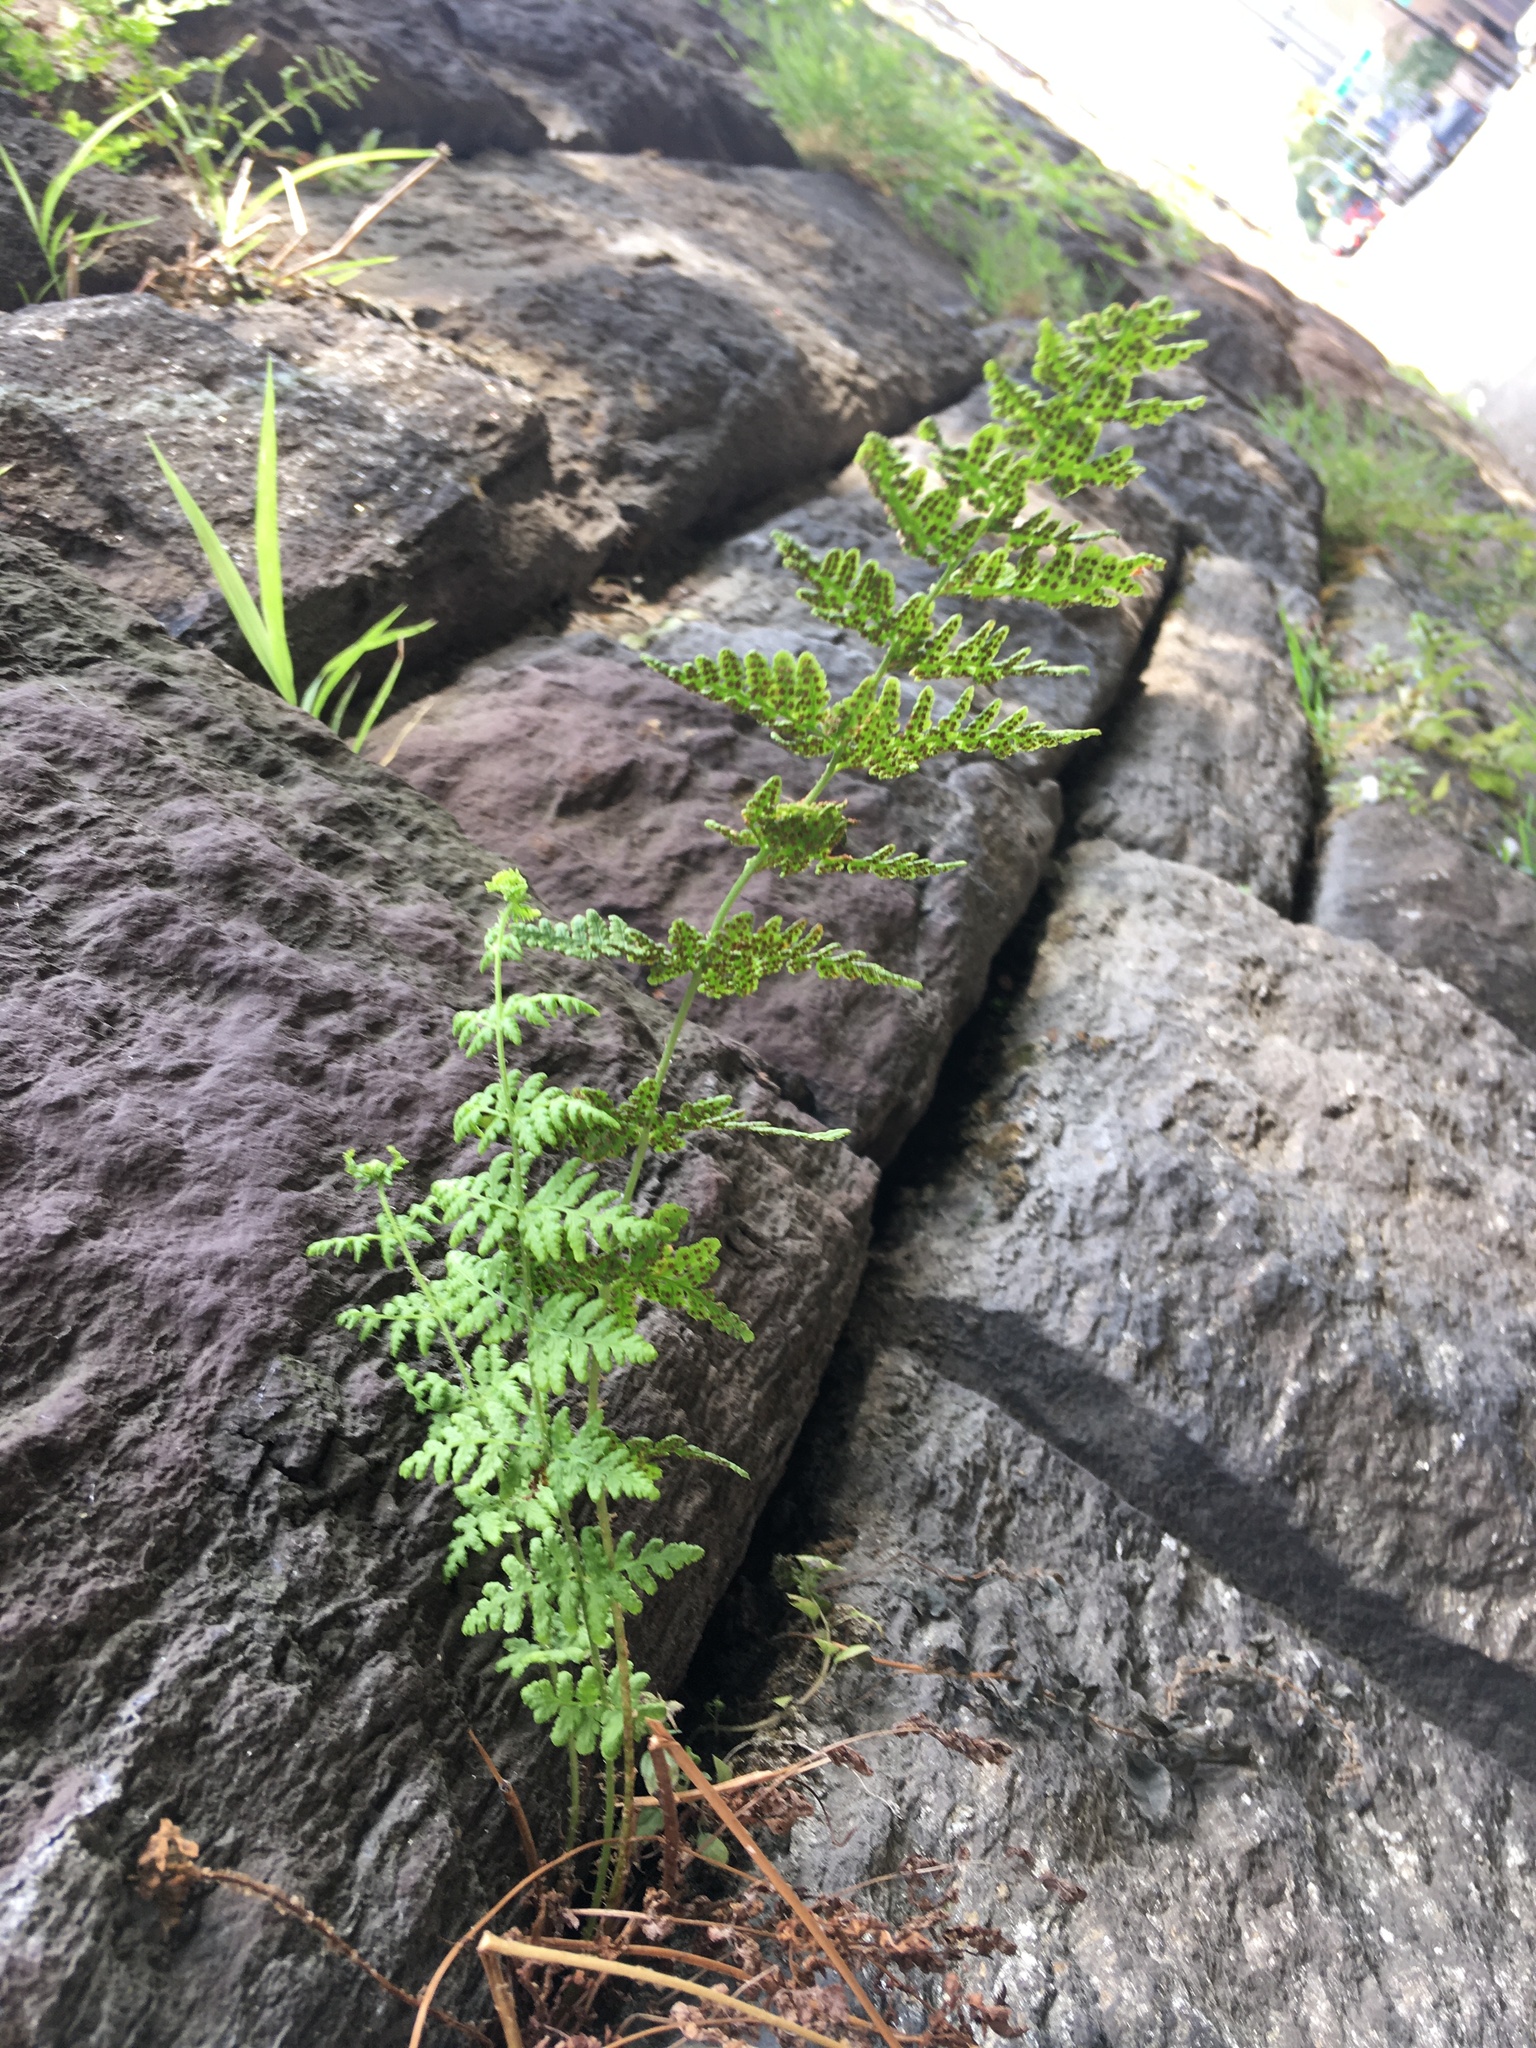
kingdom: Plantae
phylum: Tracheophyta
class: Polypodiopsida
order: Polypodiales
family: Woodsiaceae
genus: Physematium
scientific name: Physematium obtusum
